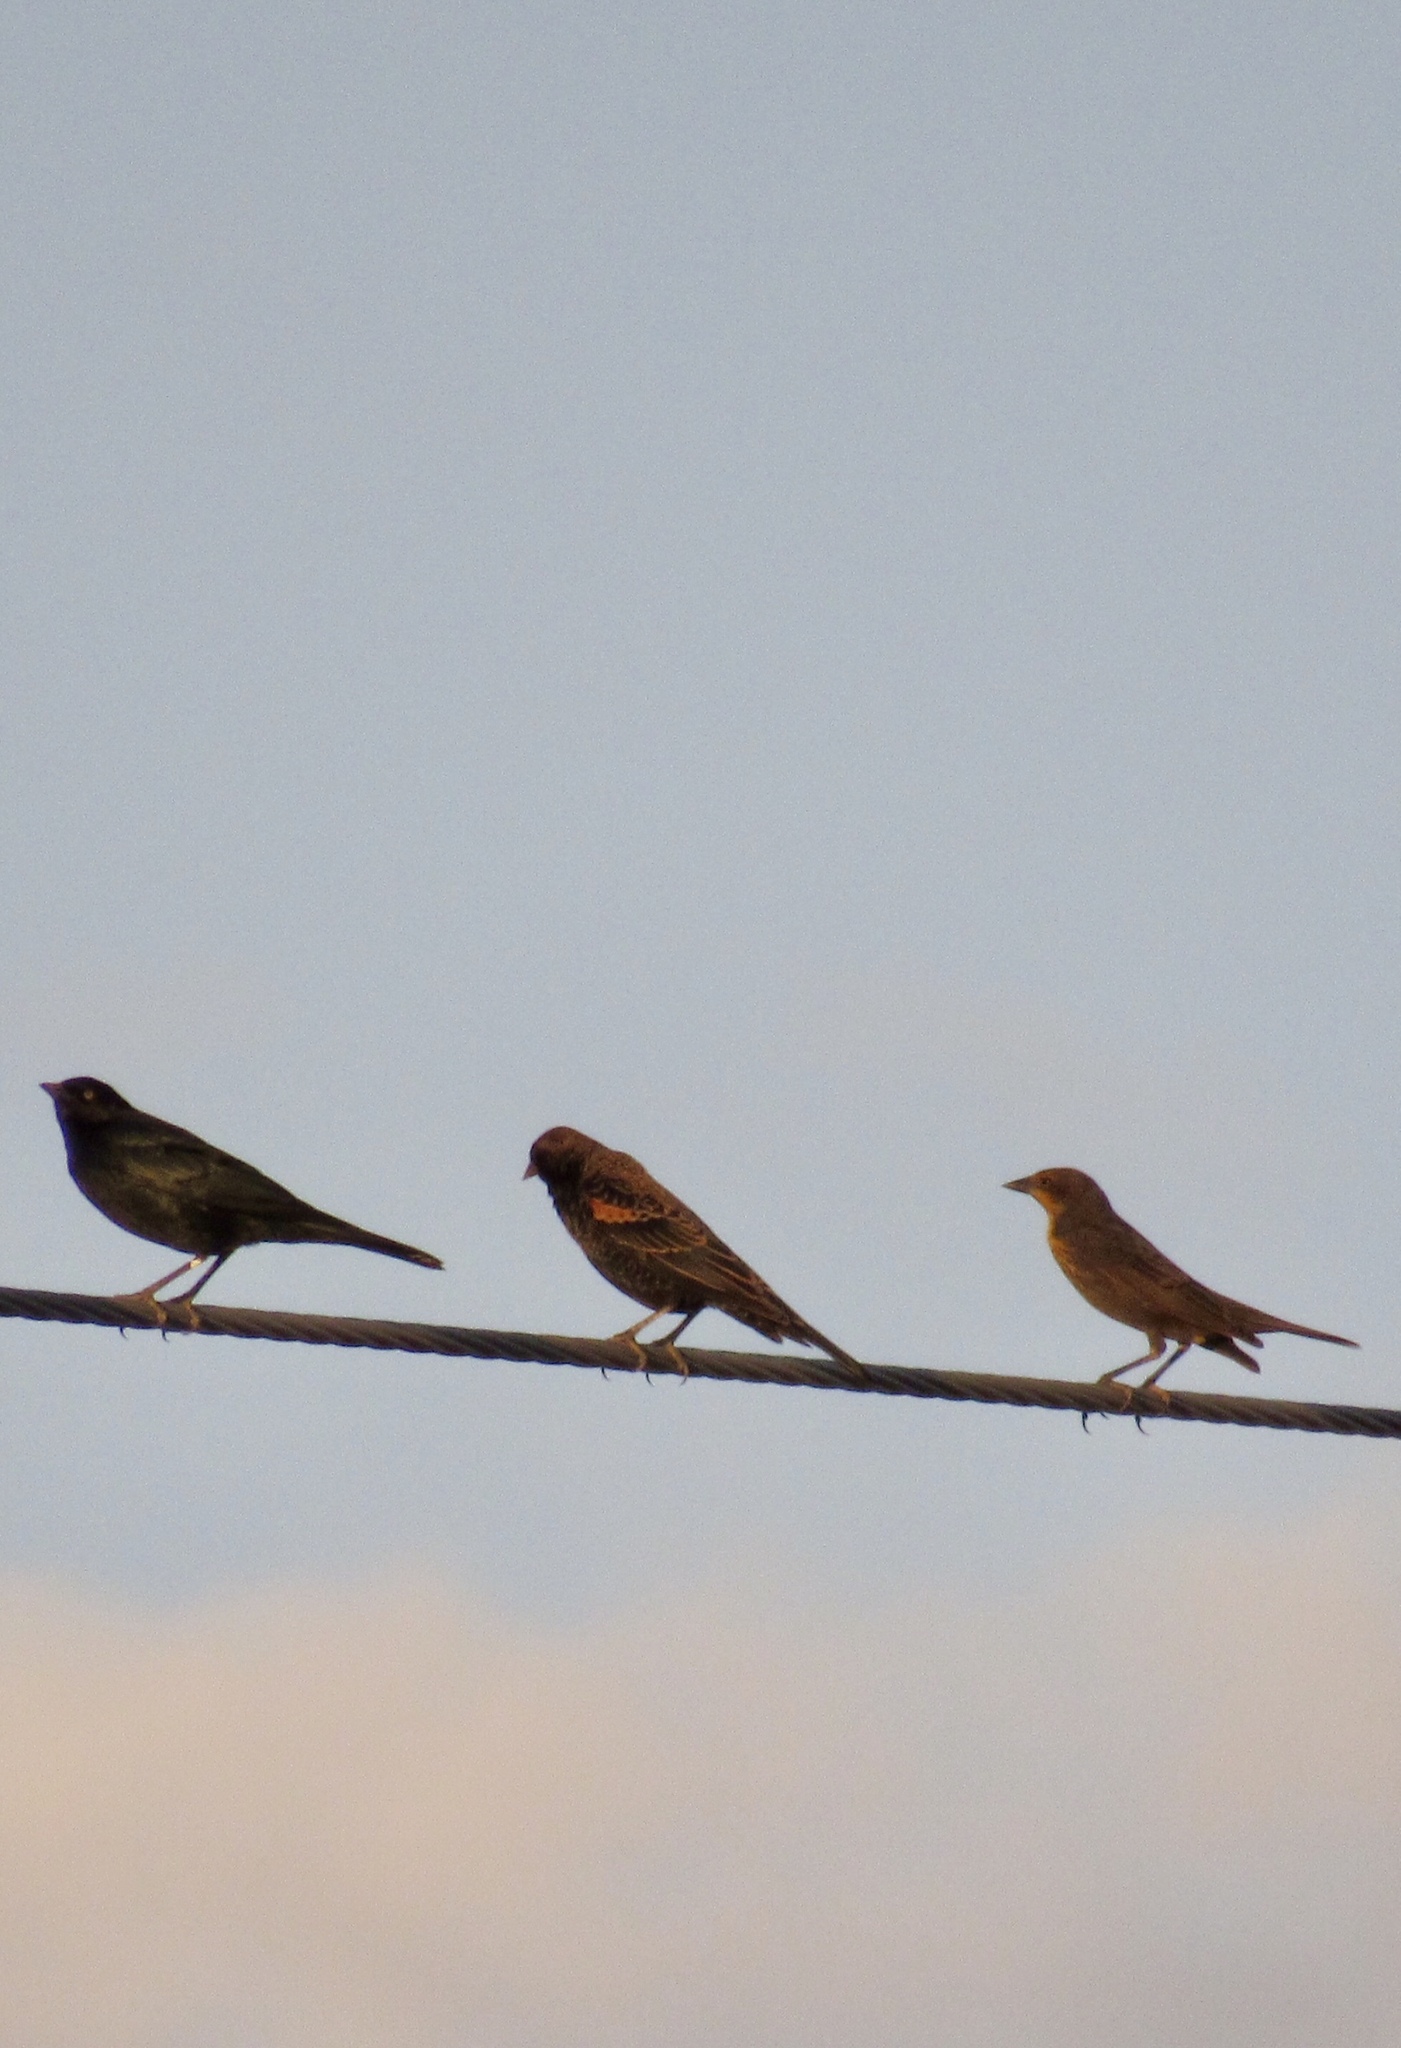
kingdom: Animalia
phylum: Chordata
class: Aves
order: Passeriformes
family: Icteridae
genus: Agelaius
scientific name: Agelaius phoeniceus
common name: Red-winged blackbird
